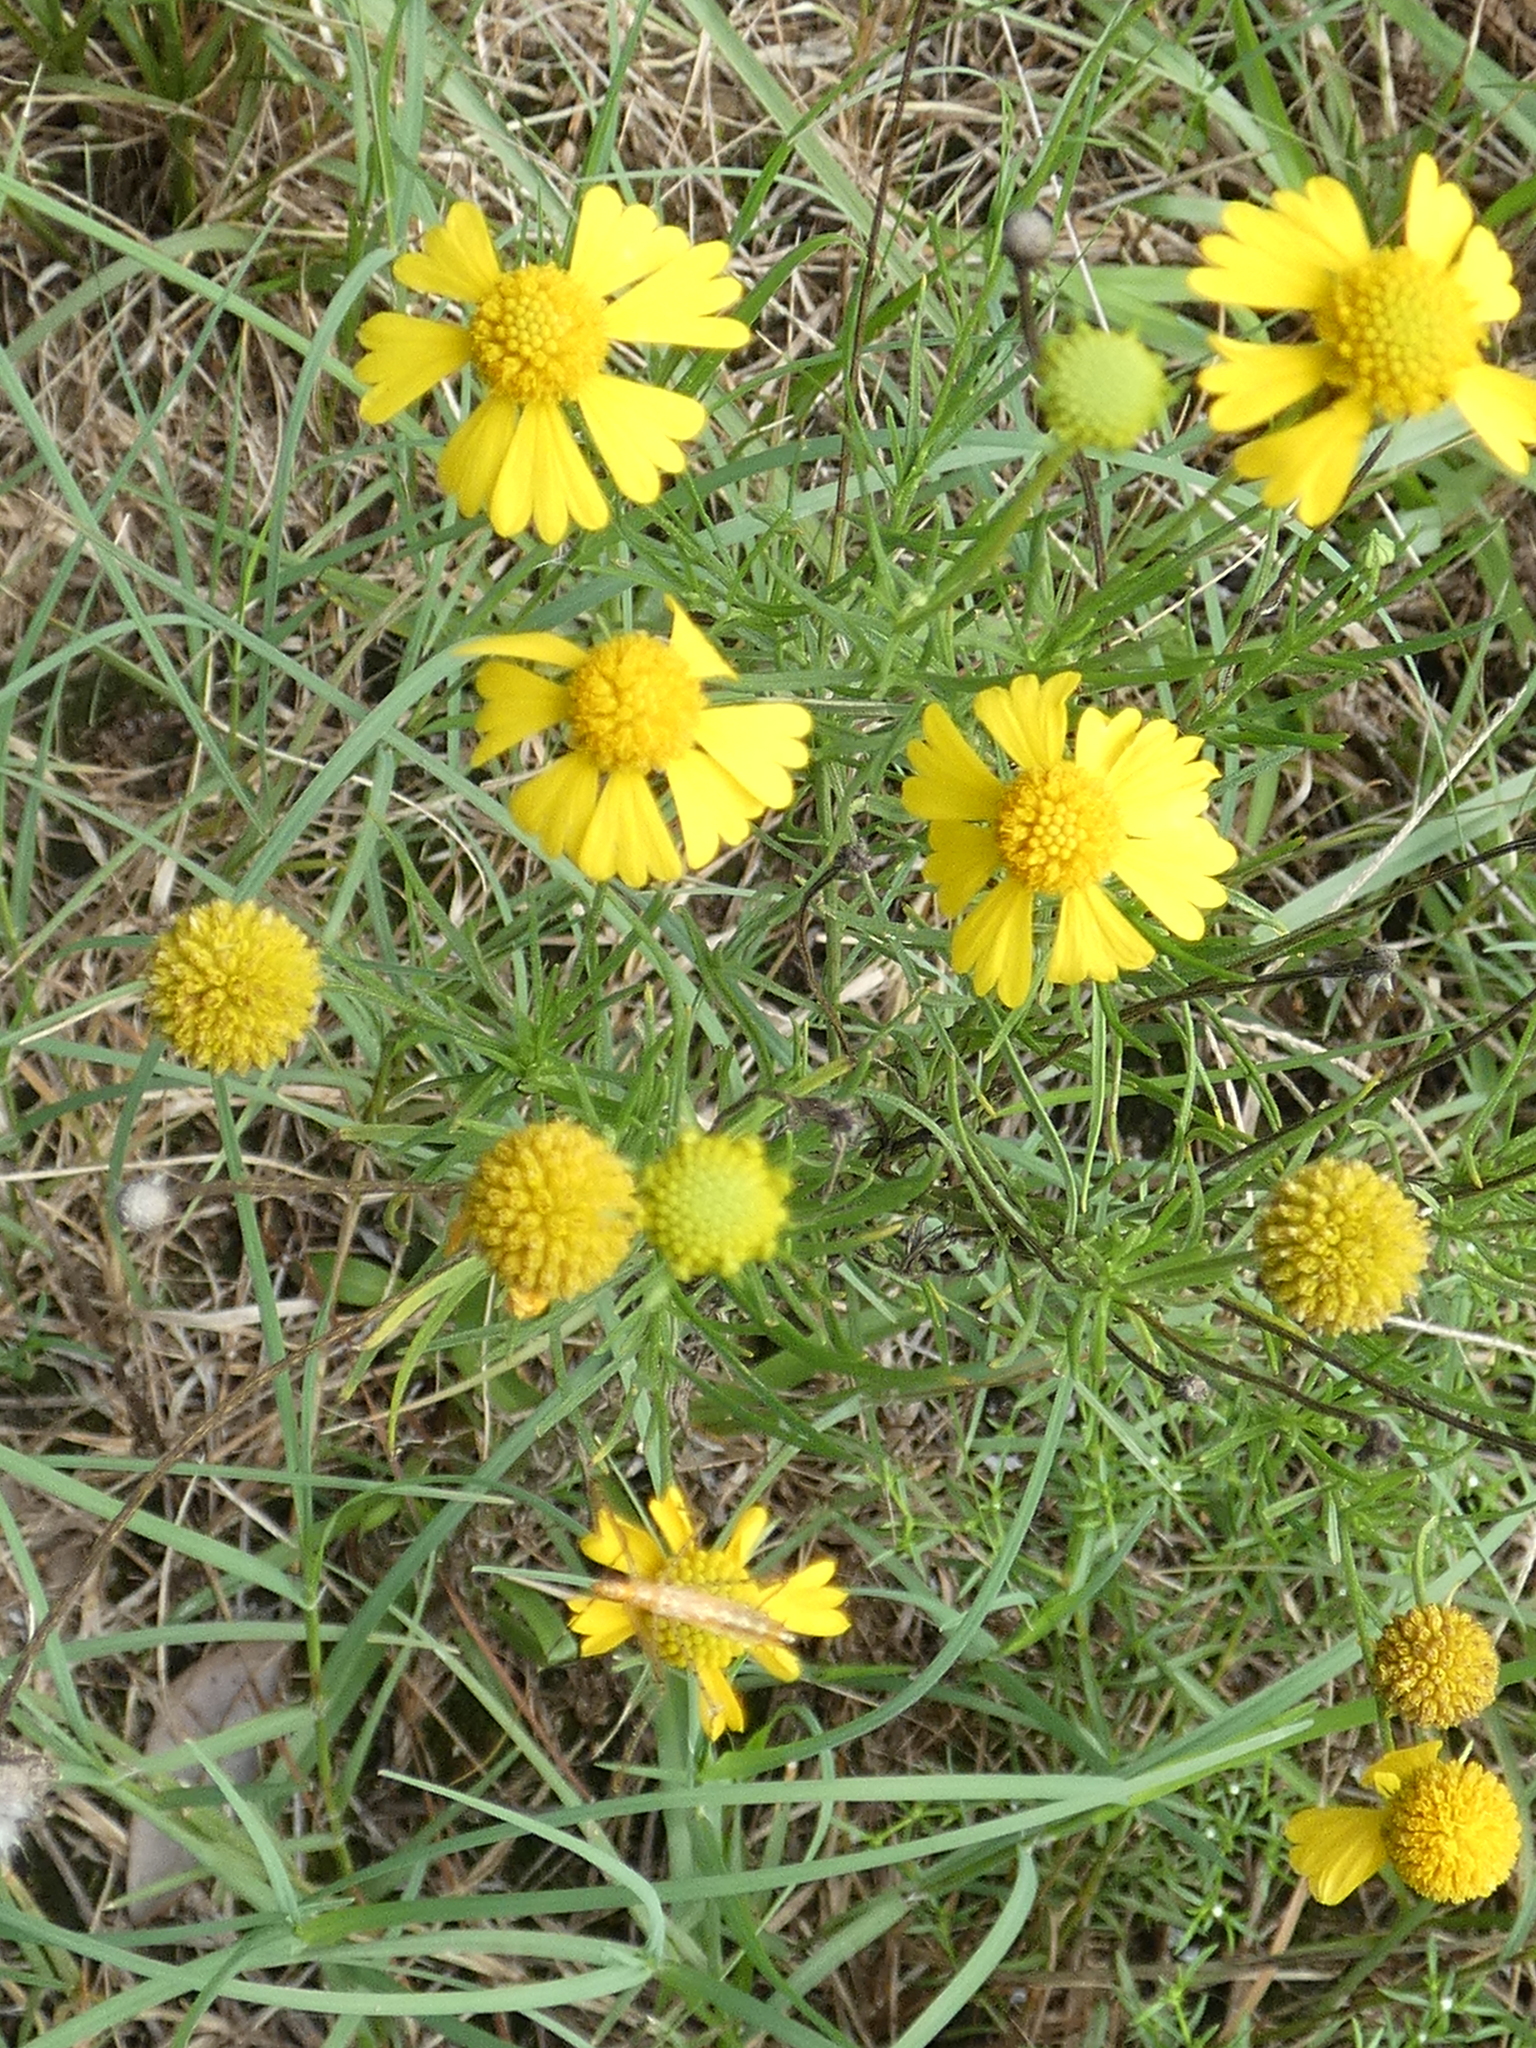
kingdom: Plantae
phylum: Tracheophyta
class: Magnoliopsida
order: Asterales
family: Asteraceae
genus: Helenium
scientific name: Helenium amarum
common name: Bitter sneezeweed
